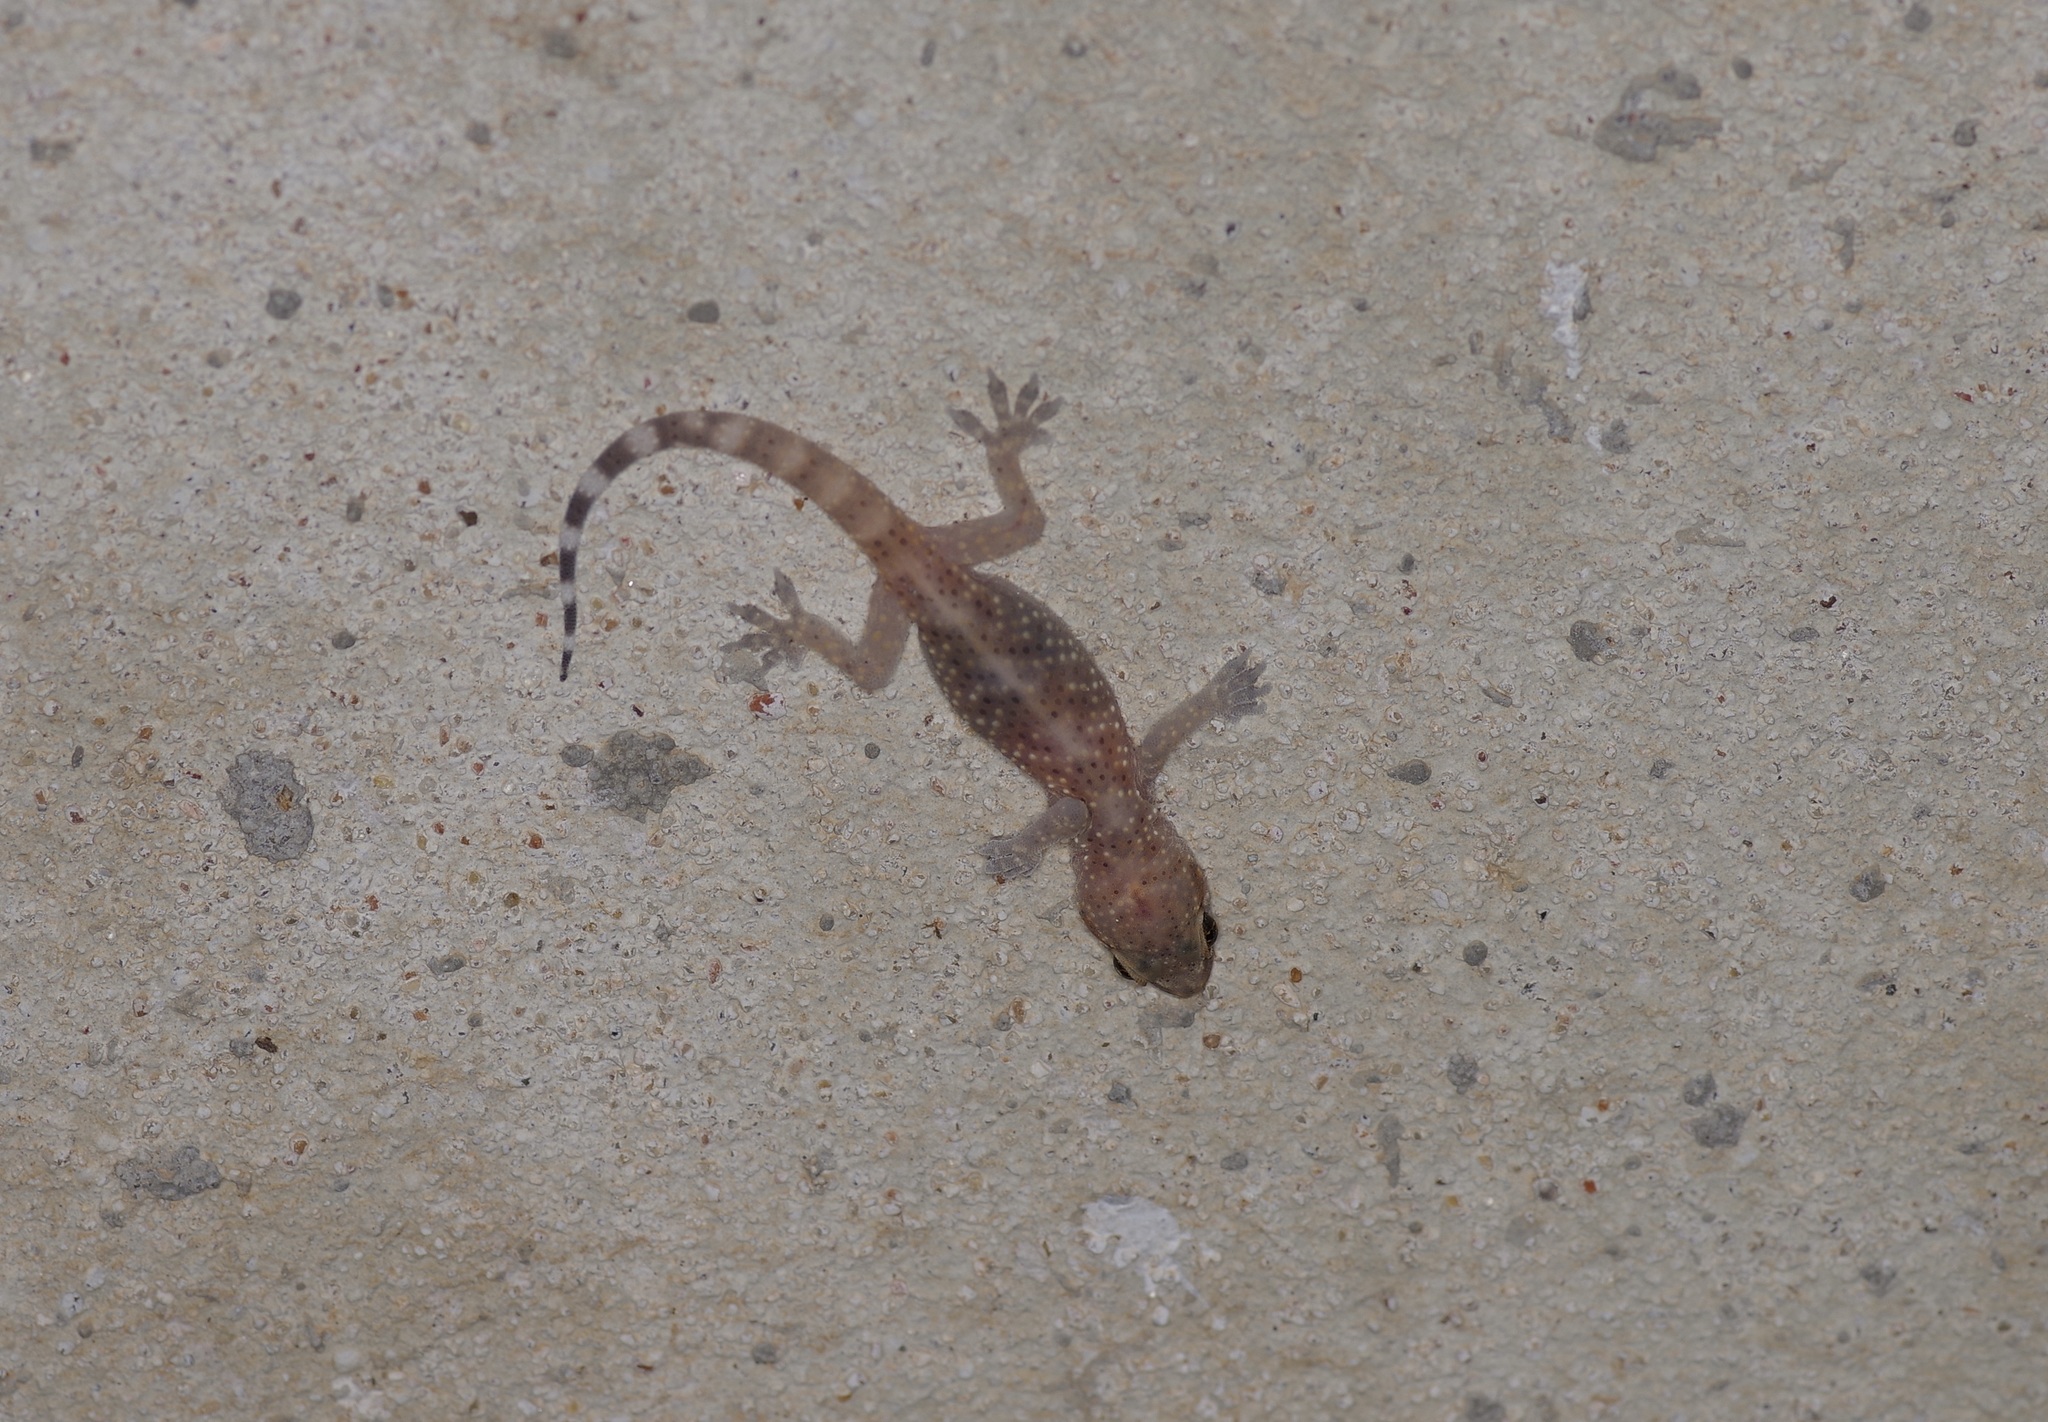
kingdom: Animalia
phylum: Chordata
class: Squamata
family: Gekkonidae
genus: Hemidactylus
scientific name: Hemidactylus turcicus
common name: Turkish gecko
